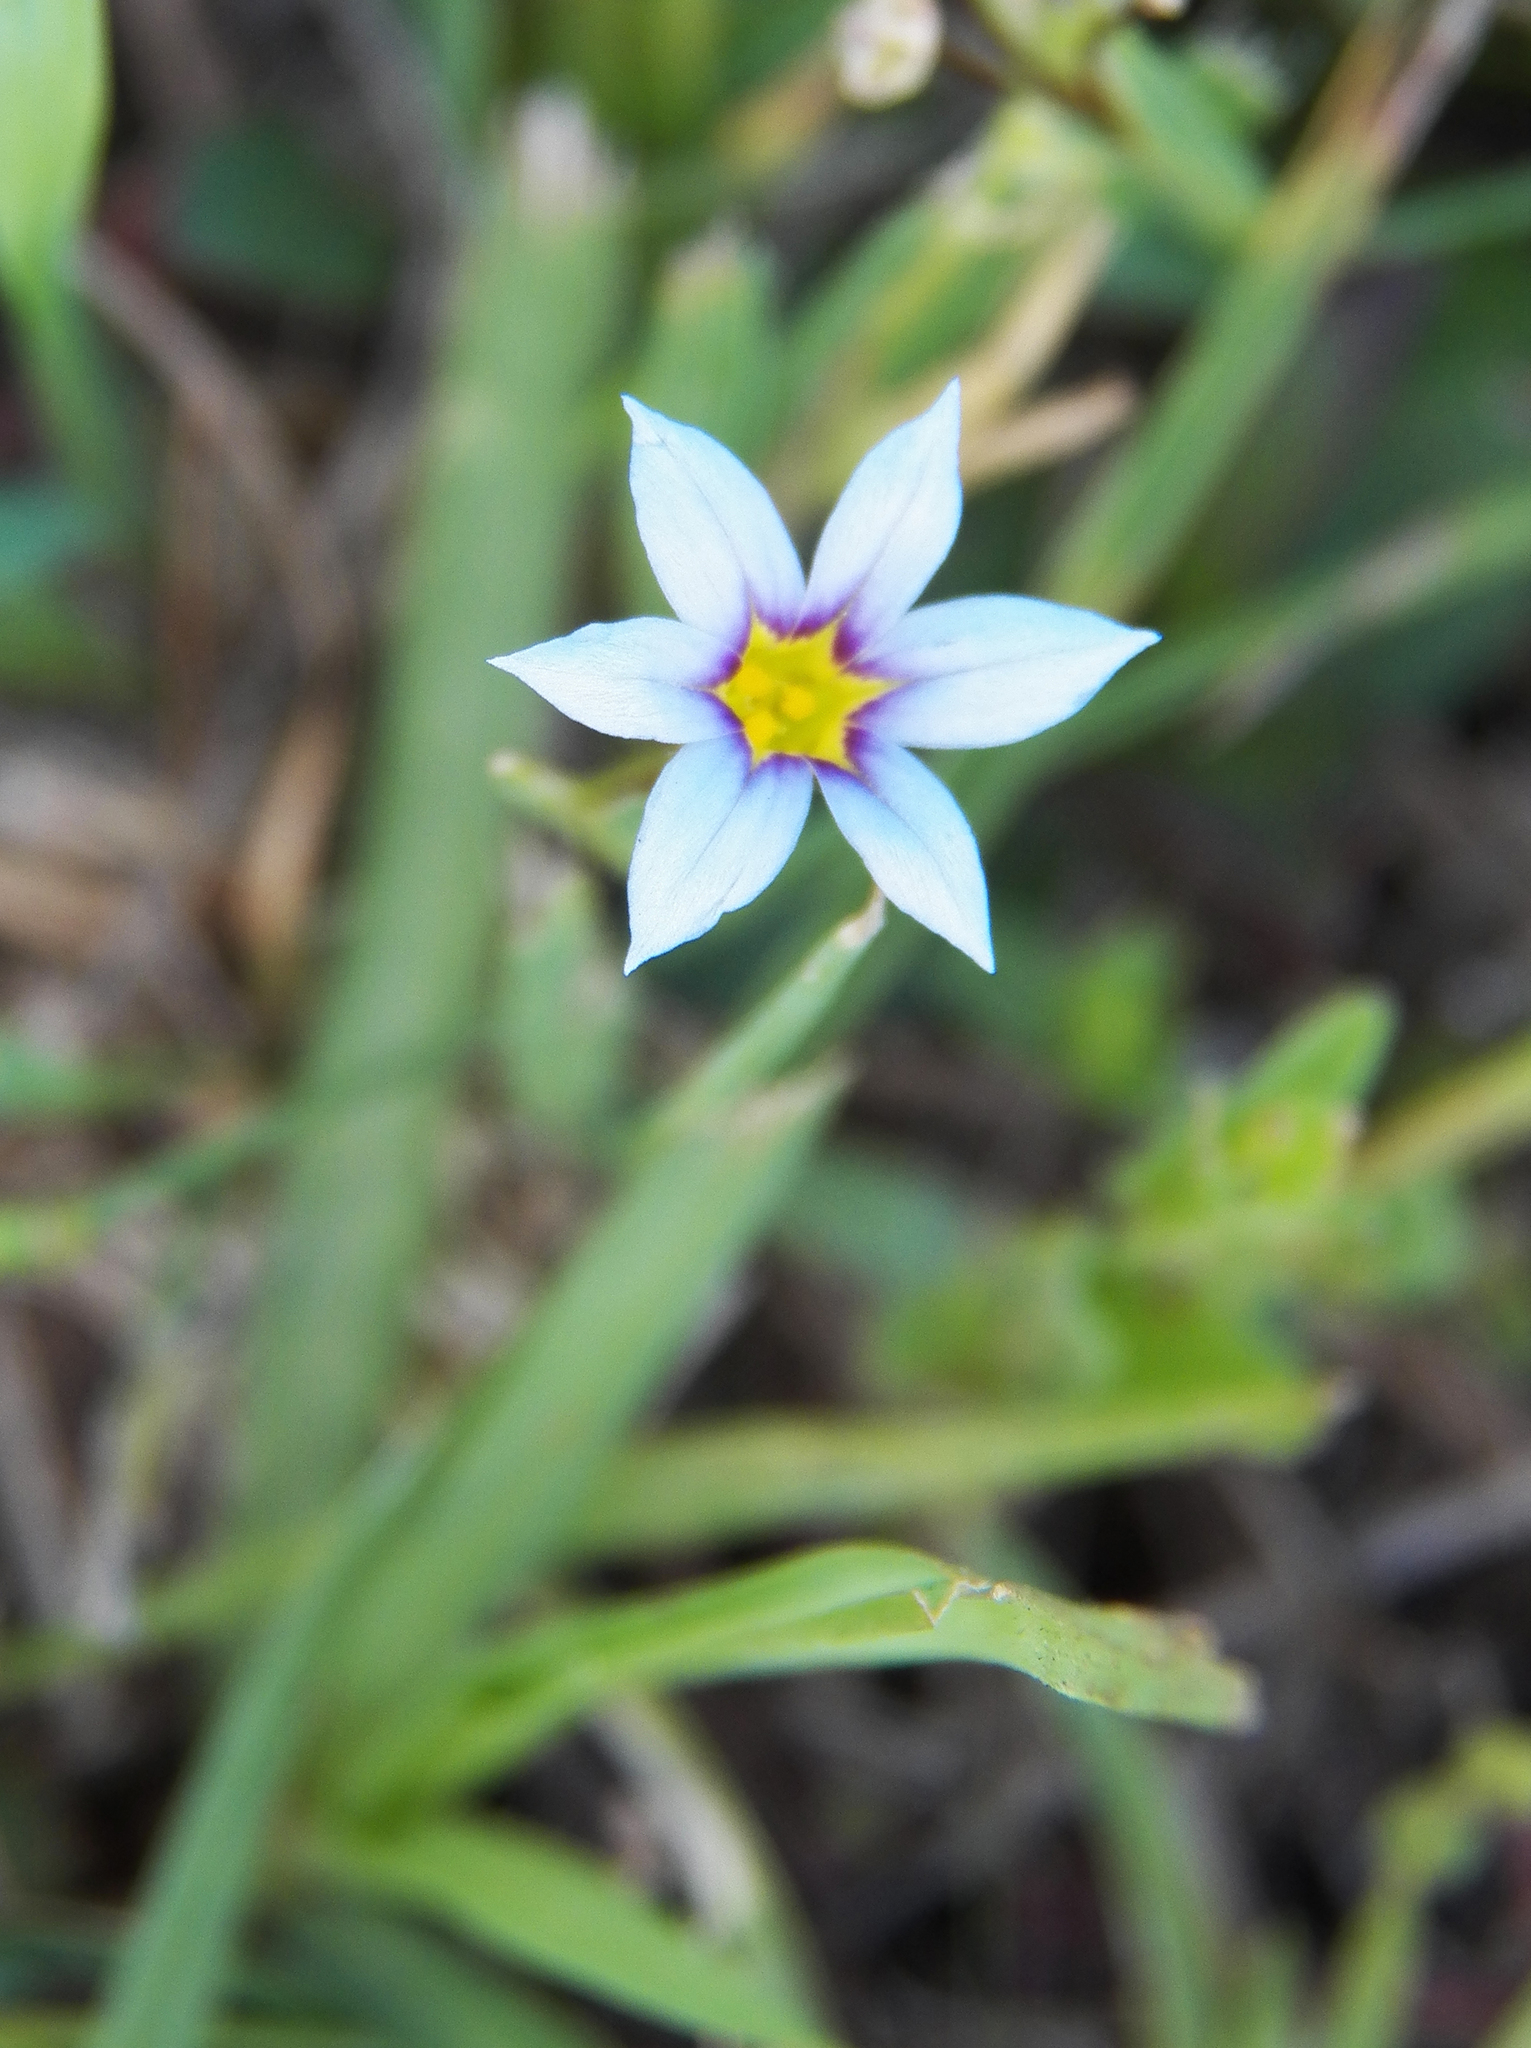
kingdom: Plantae
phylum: Tracheophyta
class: Liliopsida
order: Asparagales
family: Iridaceae
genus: Sisyrinchium
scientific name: Sisyrinchium micranthum
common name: Bermuda pigroot
